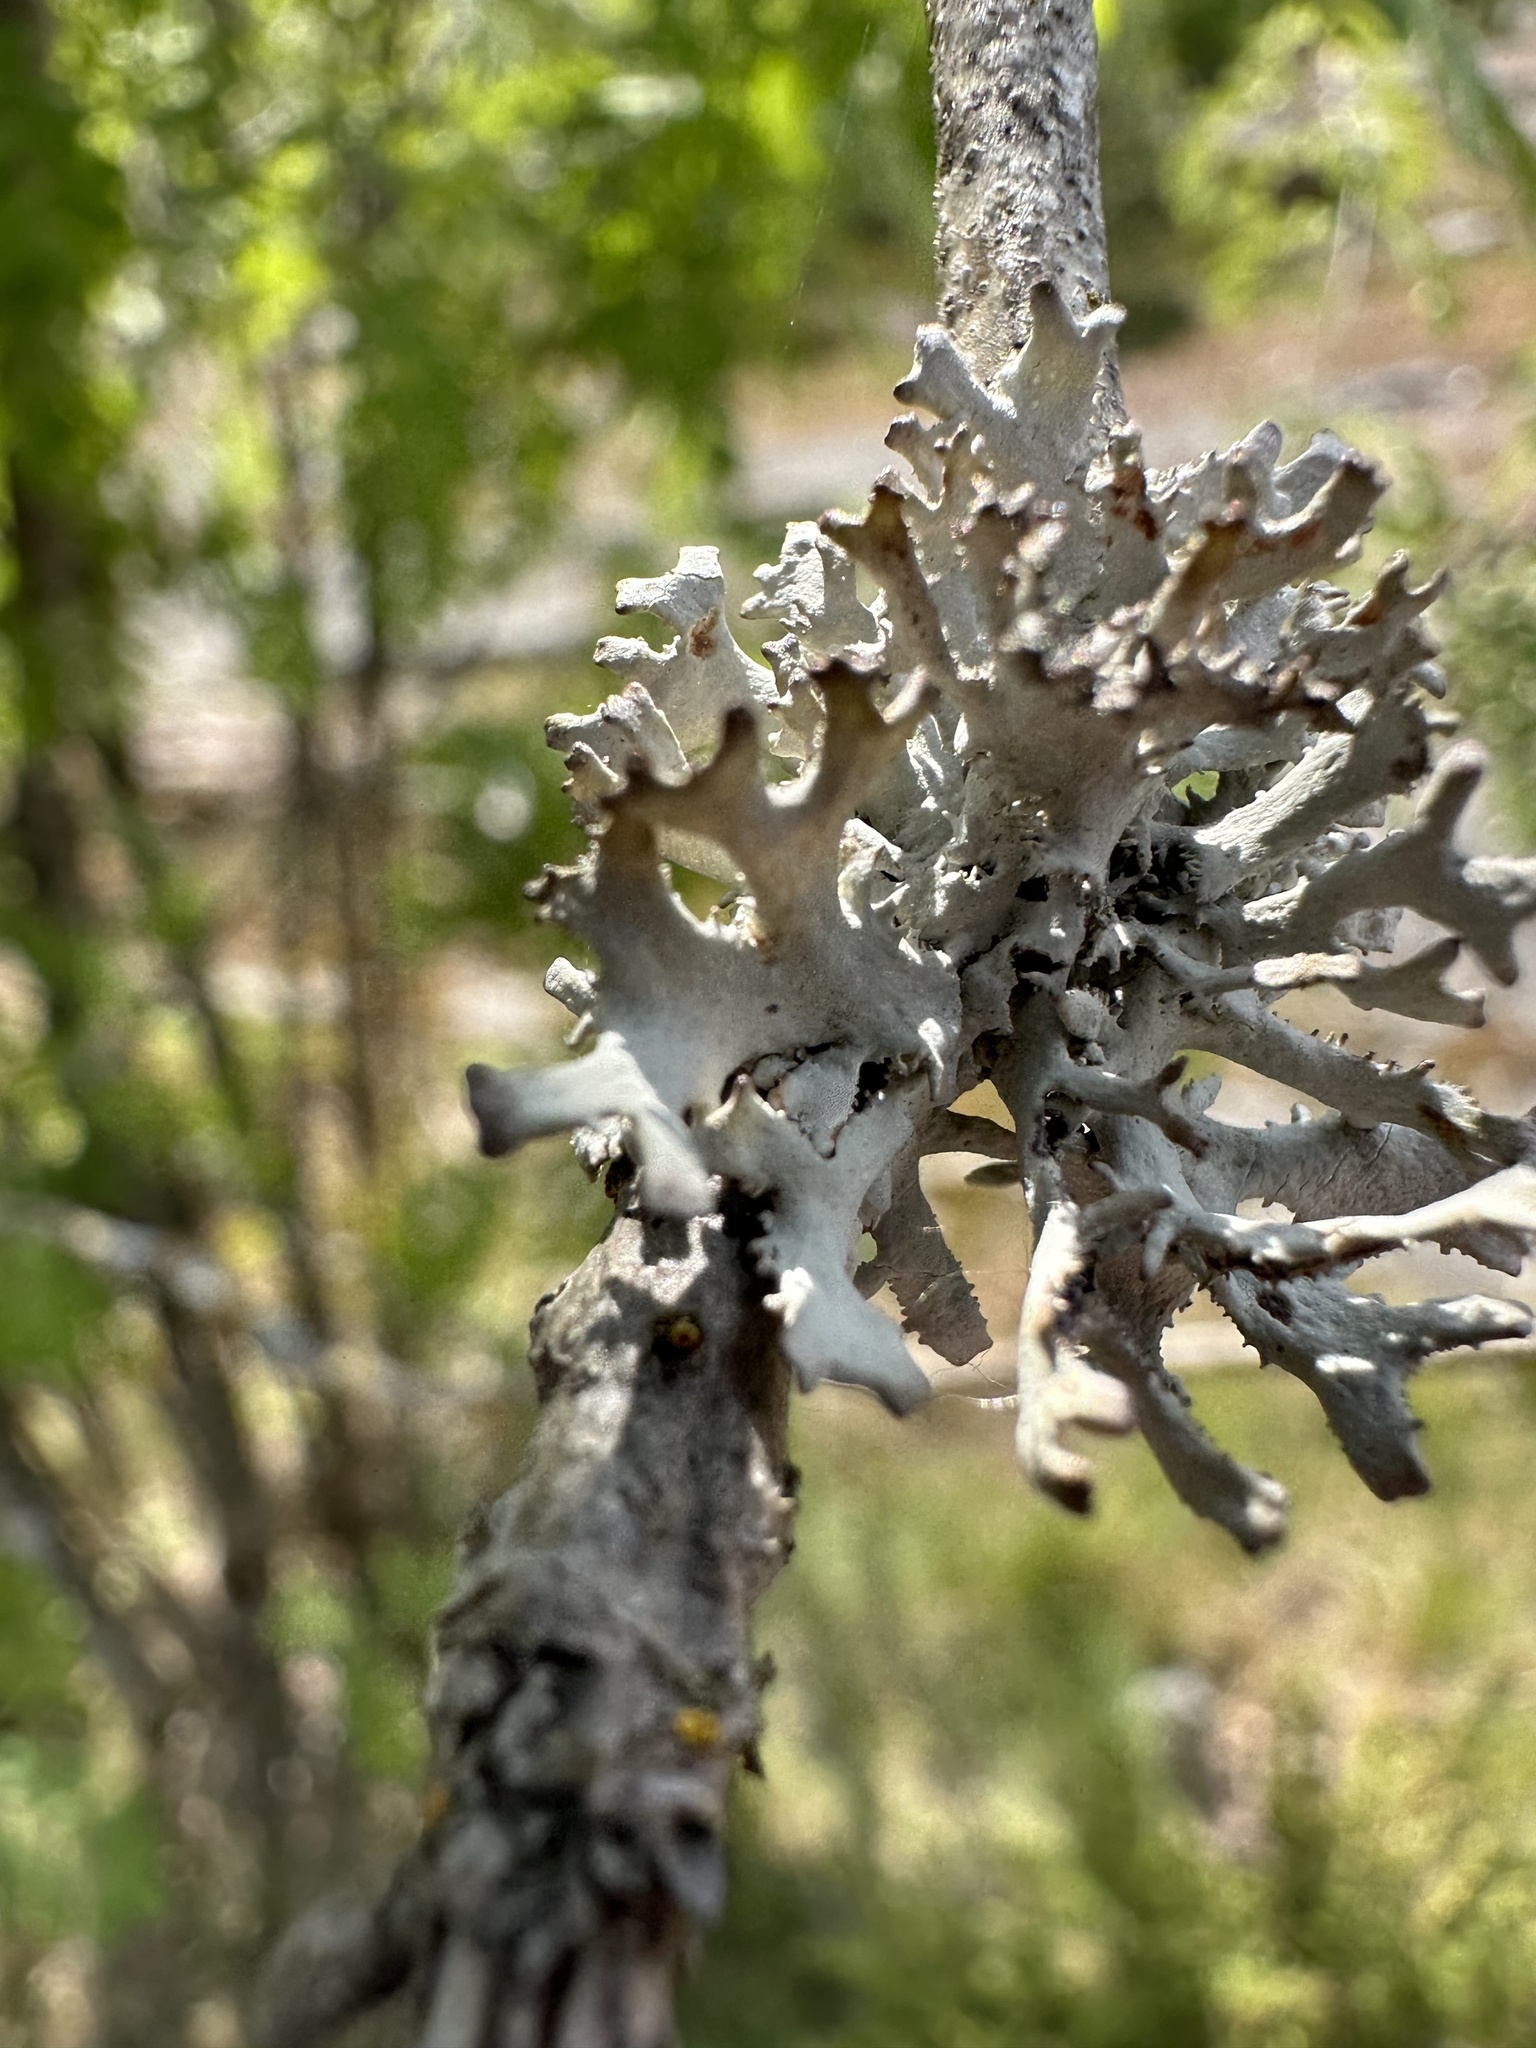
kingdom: Fungi
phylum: Ascomycota
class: Lecanoromycetes
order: Lecanorales
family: Parmeliaceae
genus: Pseudevernia
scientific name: Pseudevernia furfuracea
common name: Tree moss
